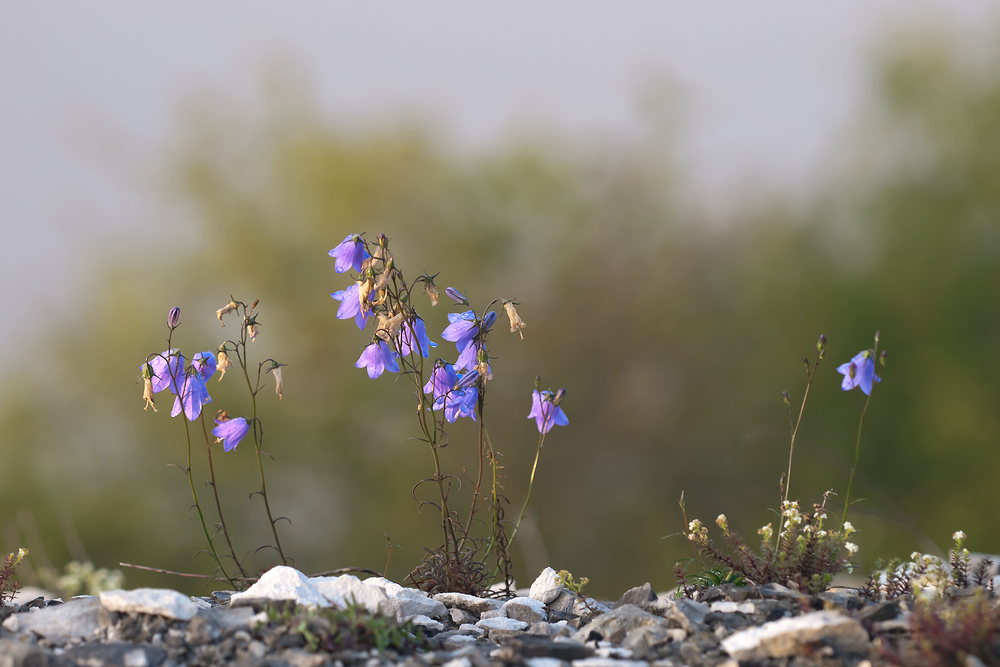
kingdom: Plantae
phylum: Tracheophyta
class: Magnoliopsida
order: Asterales
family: Campanulaceae
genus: Campanula
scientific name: Campanula rotundifolia
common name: Harebell
